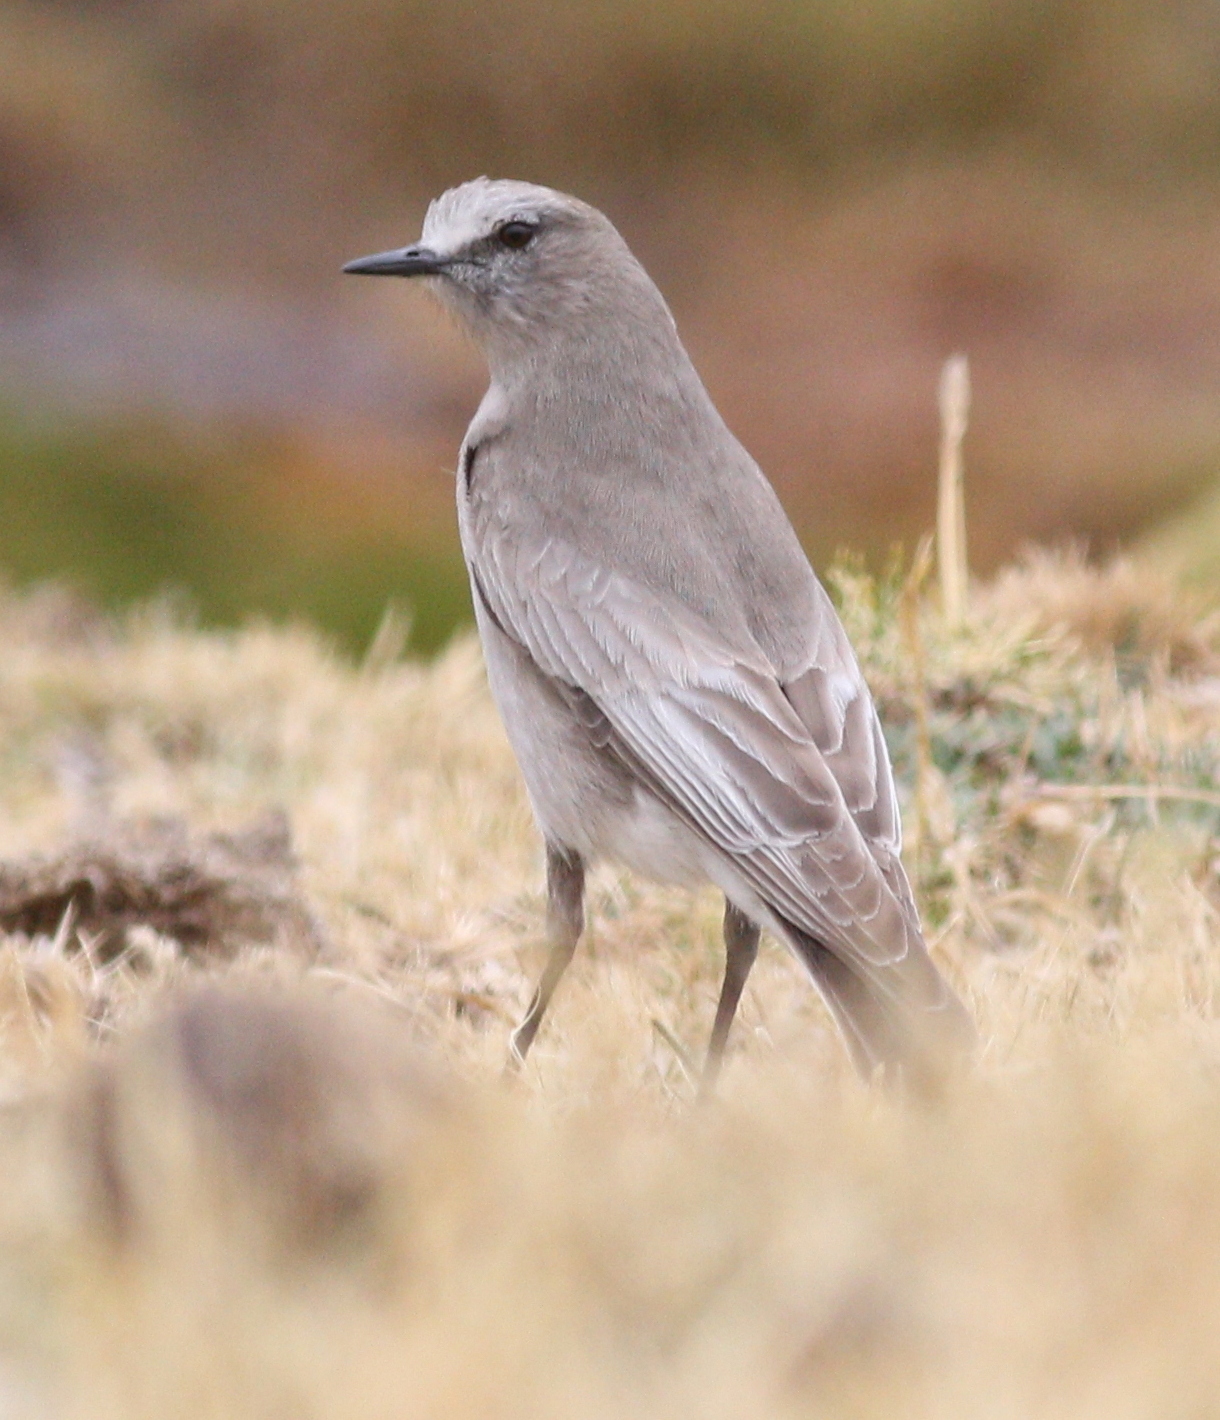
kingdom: Animalia
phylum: Chordata
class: Aves
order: Passeriformes
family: Tyrannidae
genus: Muscisaxicola
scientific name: Muscisaxicola albifrons
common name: White-fronted ground tyrant
